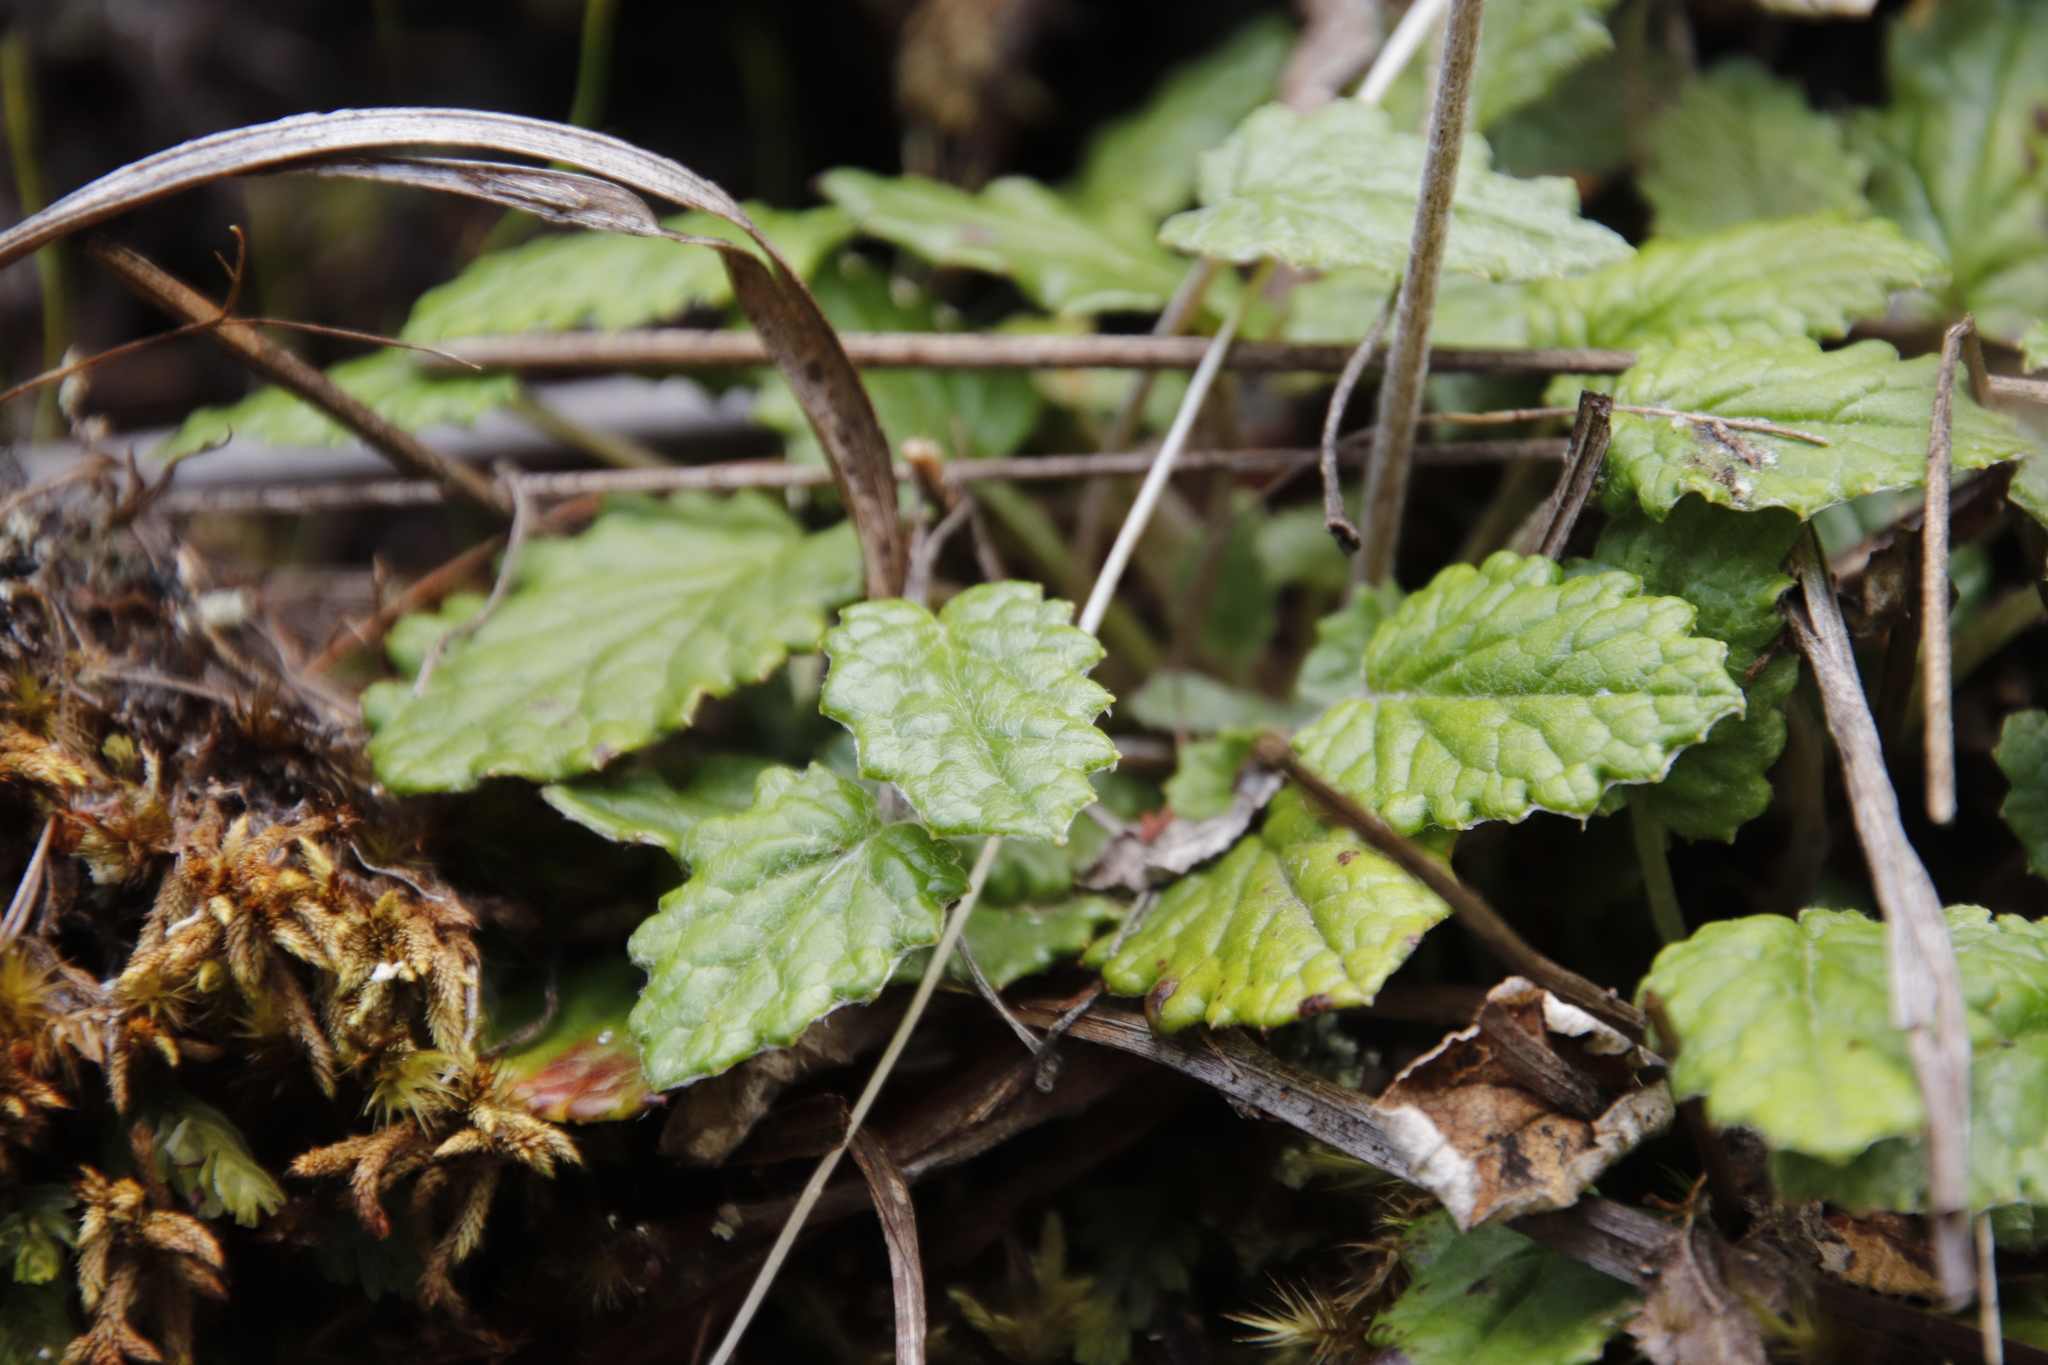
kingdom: Plantae
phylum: Tracheophyta
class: Magnoliopsida
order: Apiales
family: Apiaceae
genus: Hermas
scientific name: Hermas capitata
